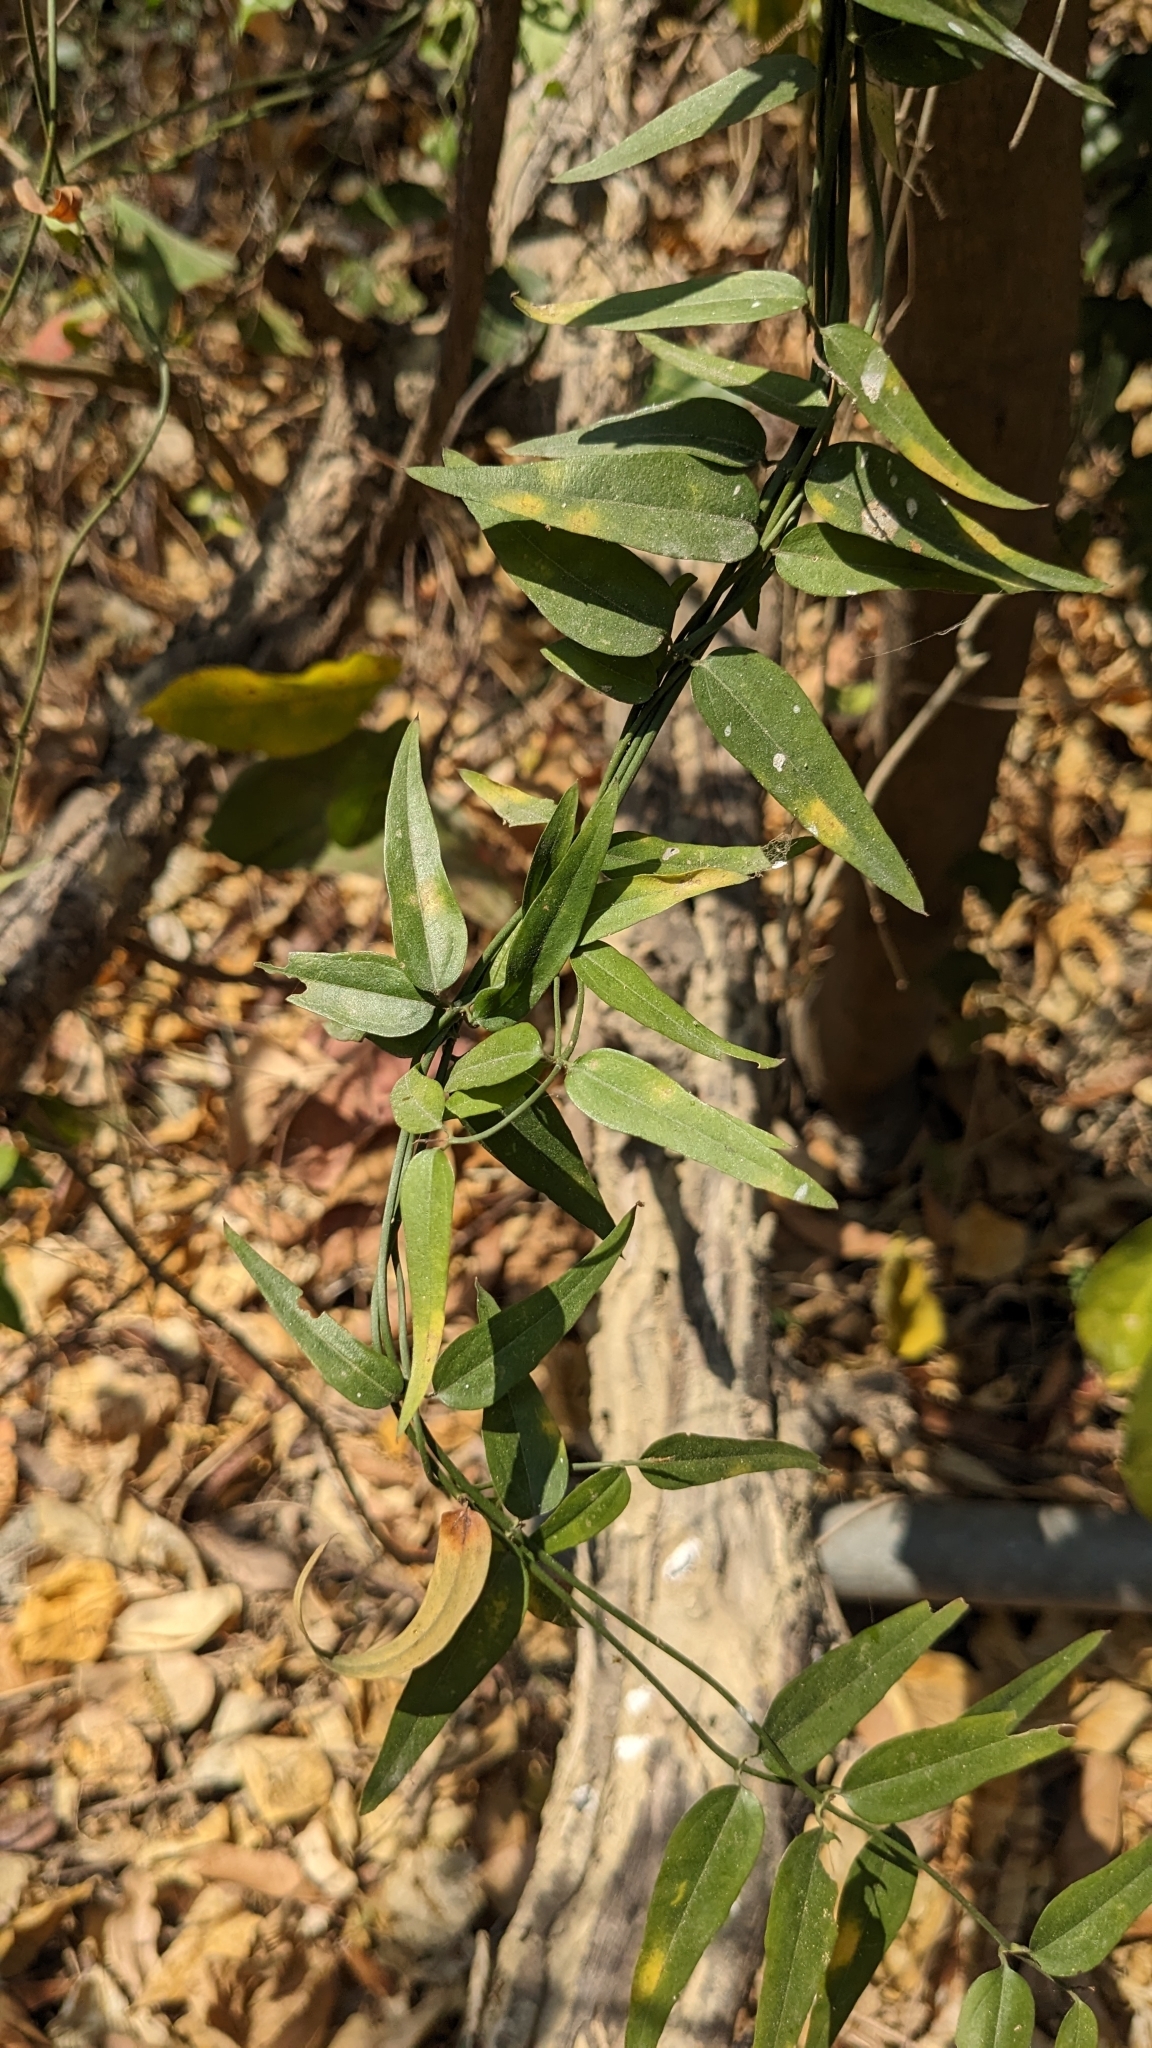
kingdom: Plantae
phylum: Tracheophyta
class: Magnoliopsida
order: Lamiales
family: Oleaceae
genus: Jasminum
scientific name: Jasminum nervosum
